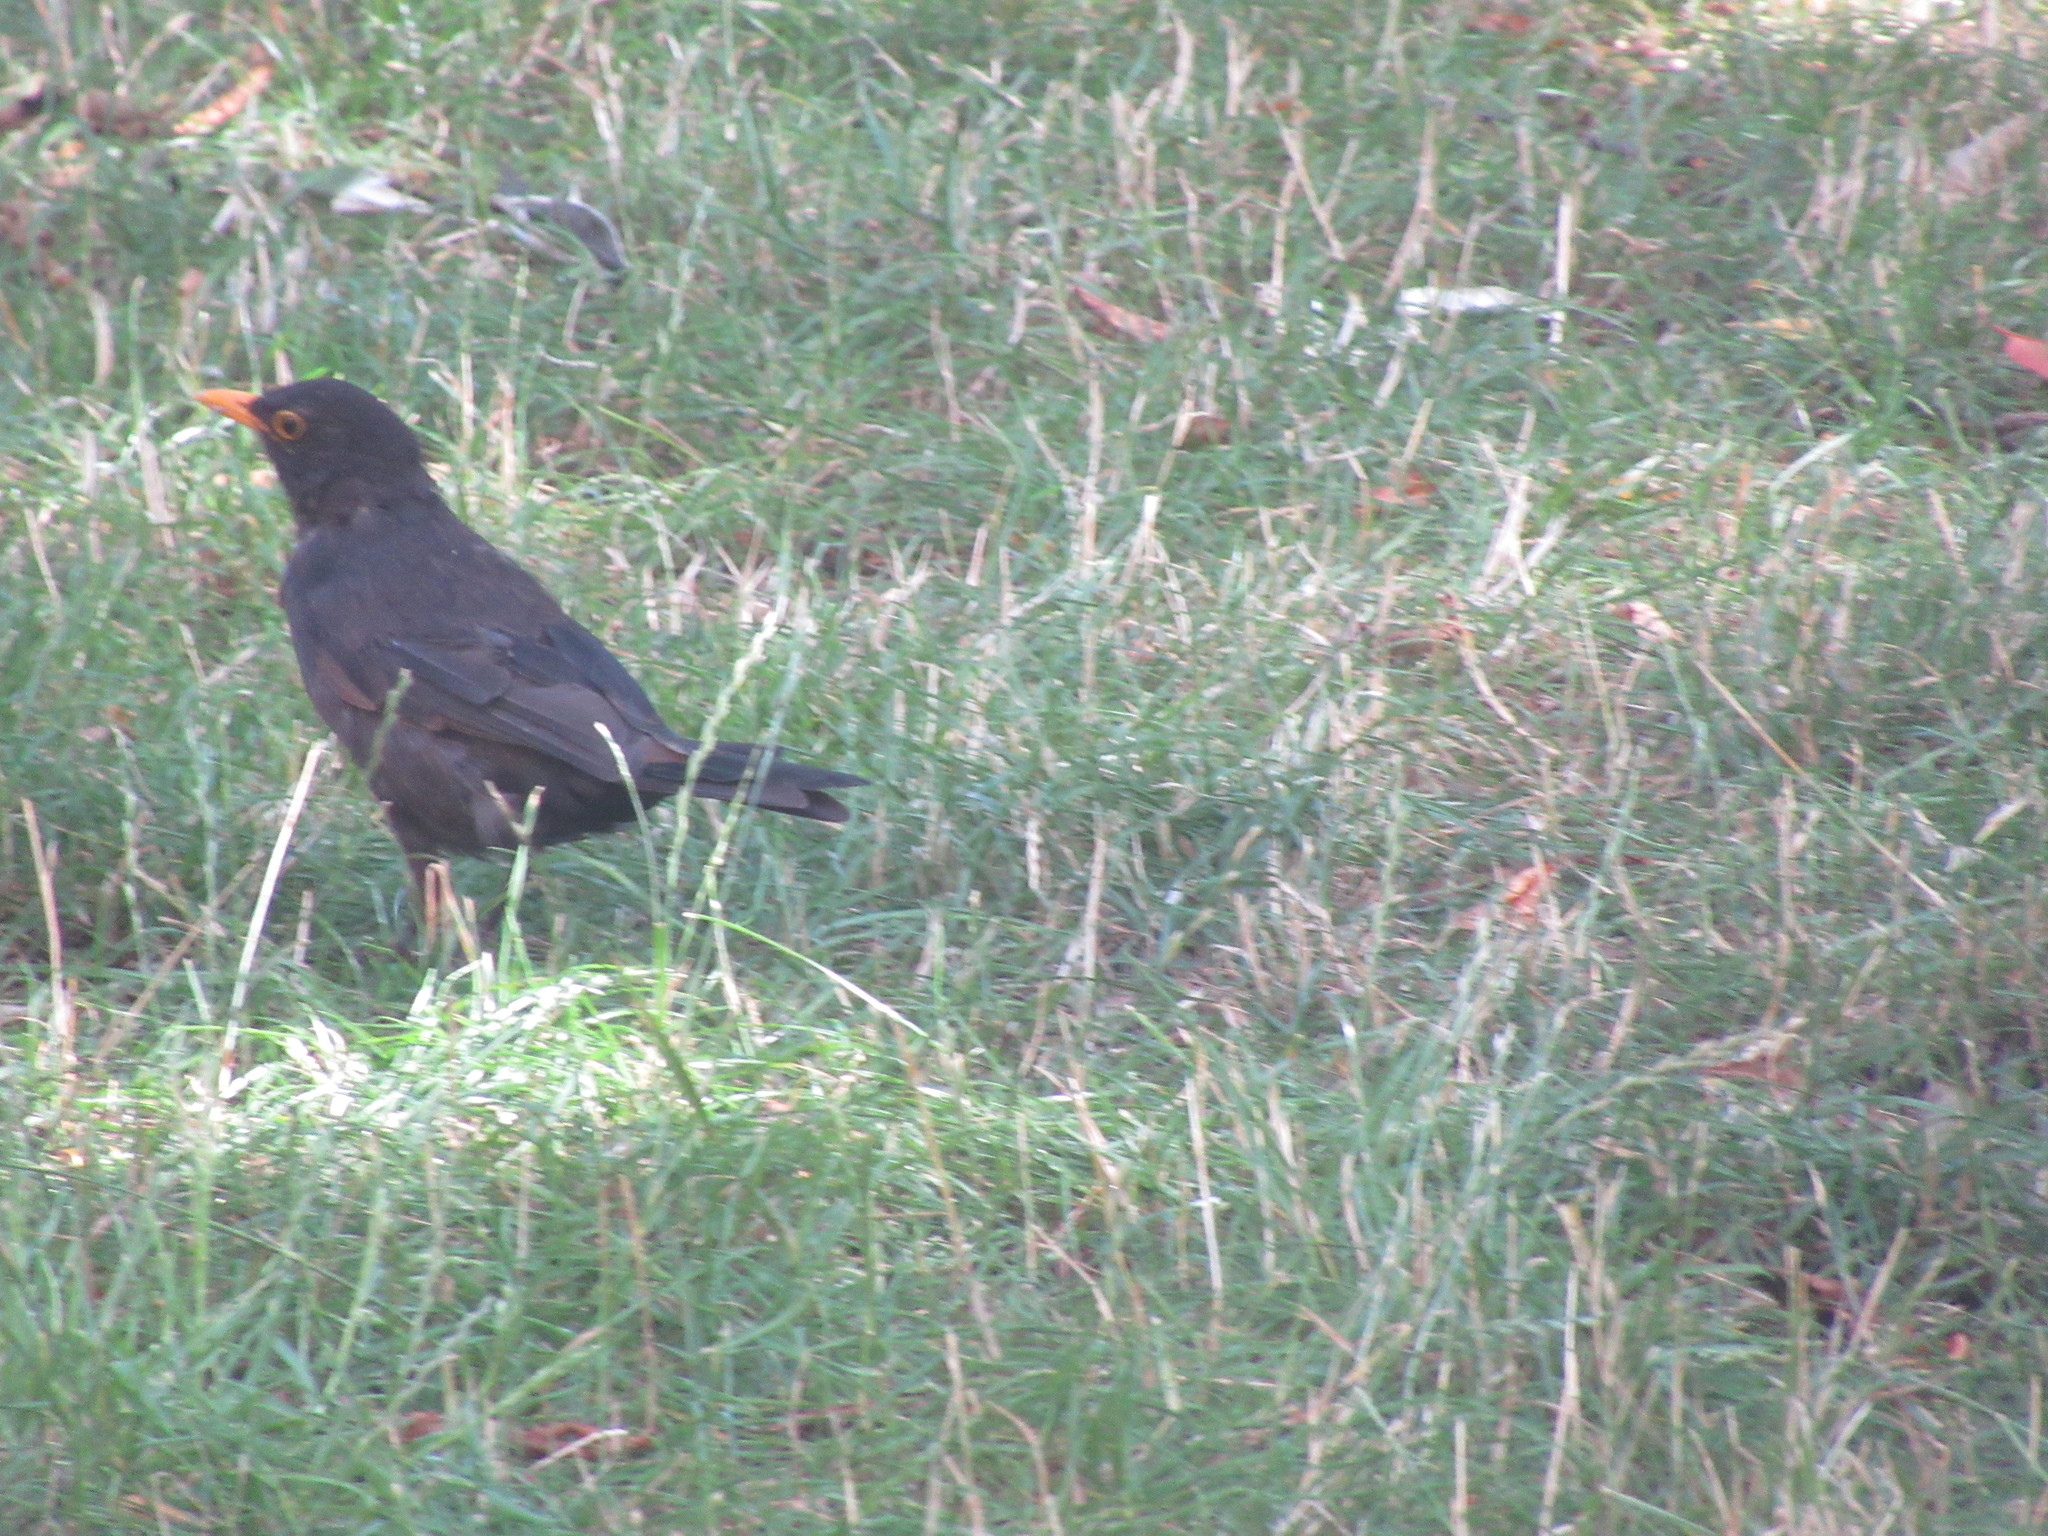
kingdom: Animalia
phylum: Chordata
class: Aves
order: Passeriformes
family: Turdidae
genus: Turdus
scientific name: Turdus merula
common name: Common blackbird
